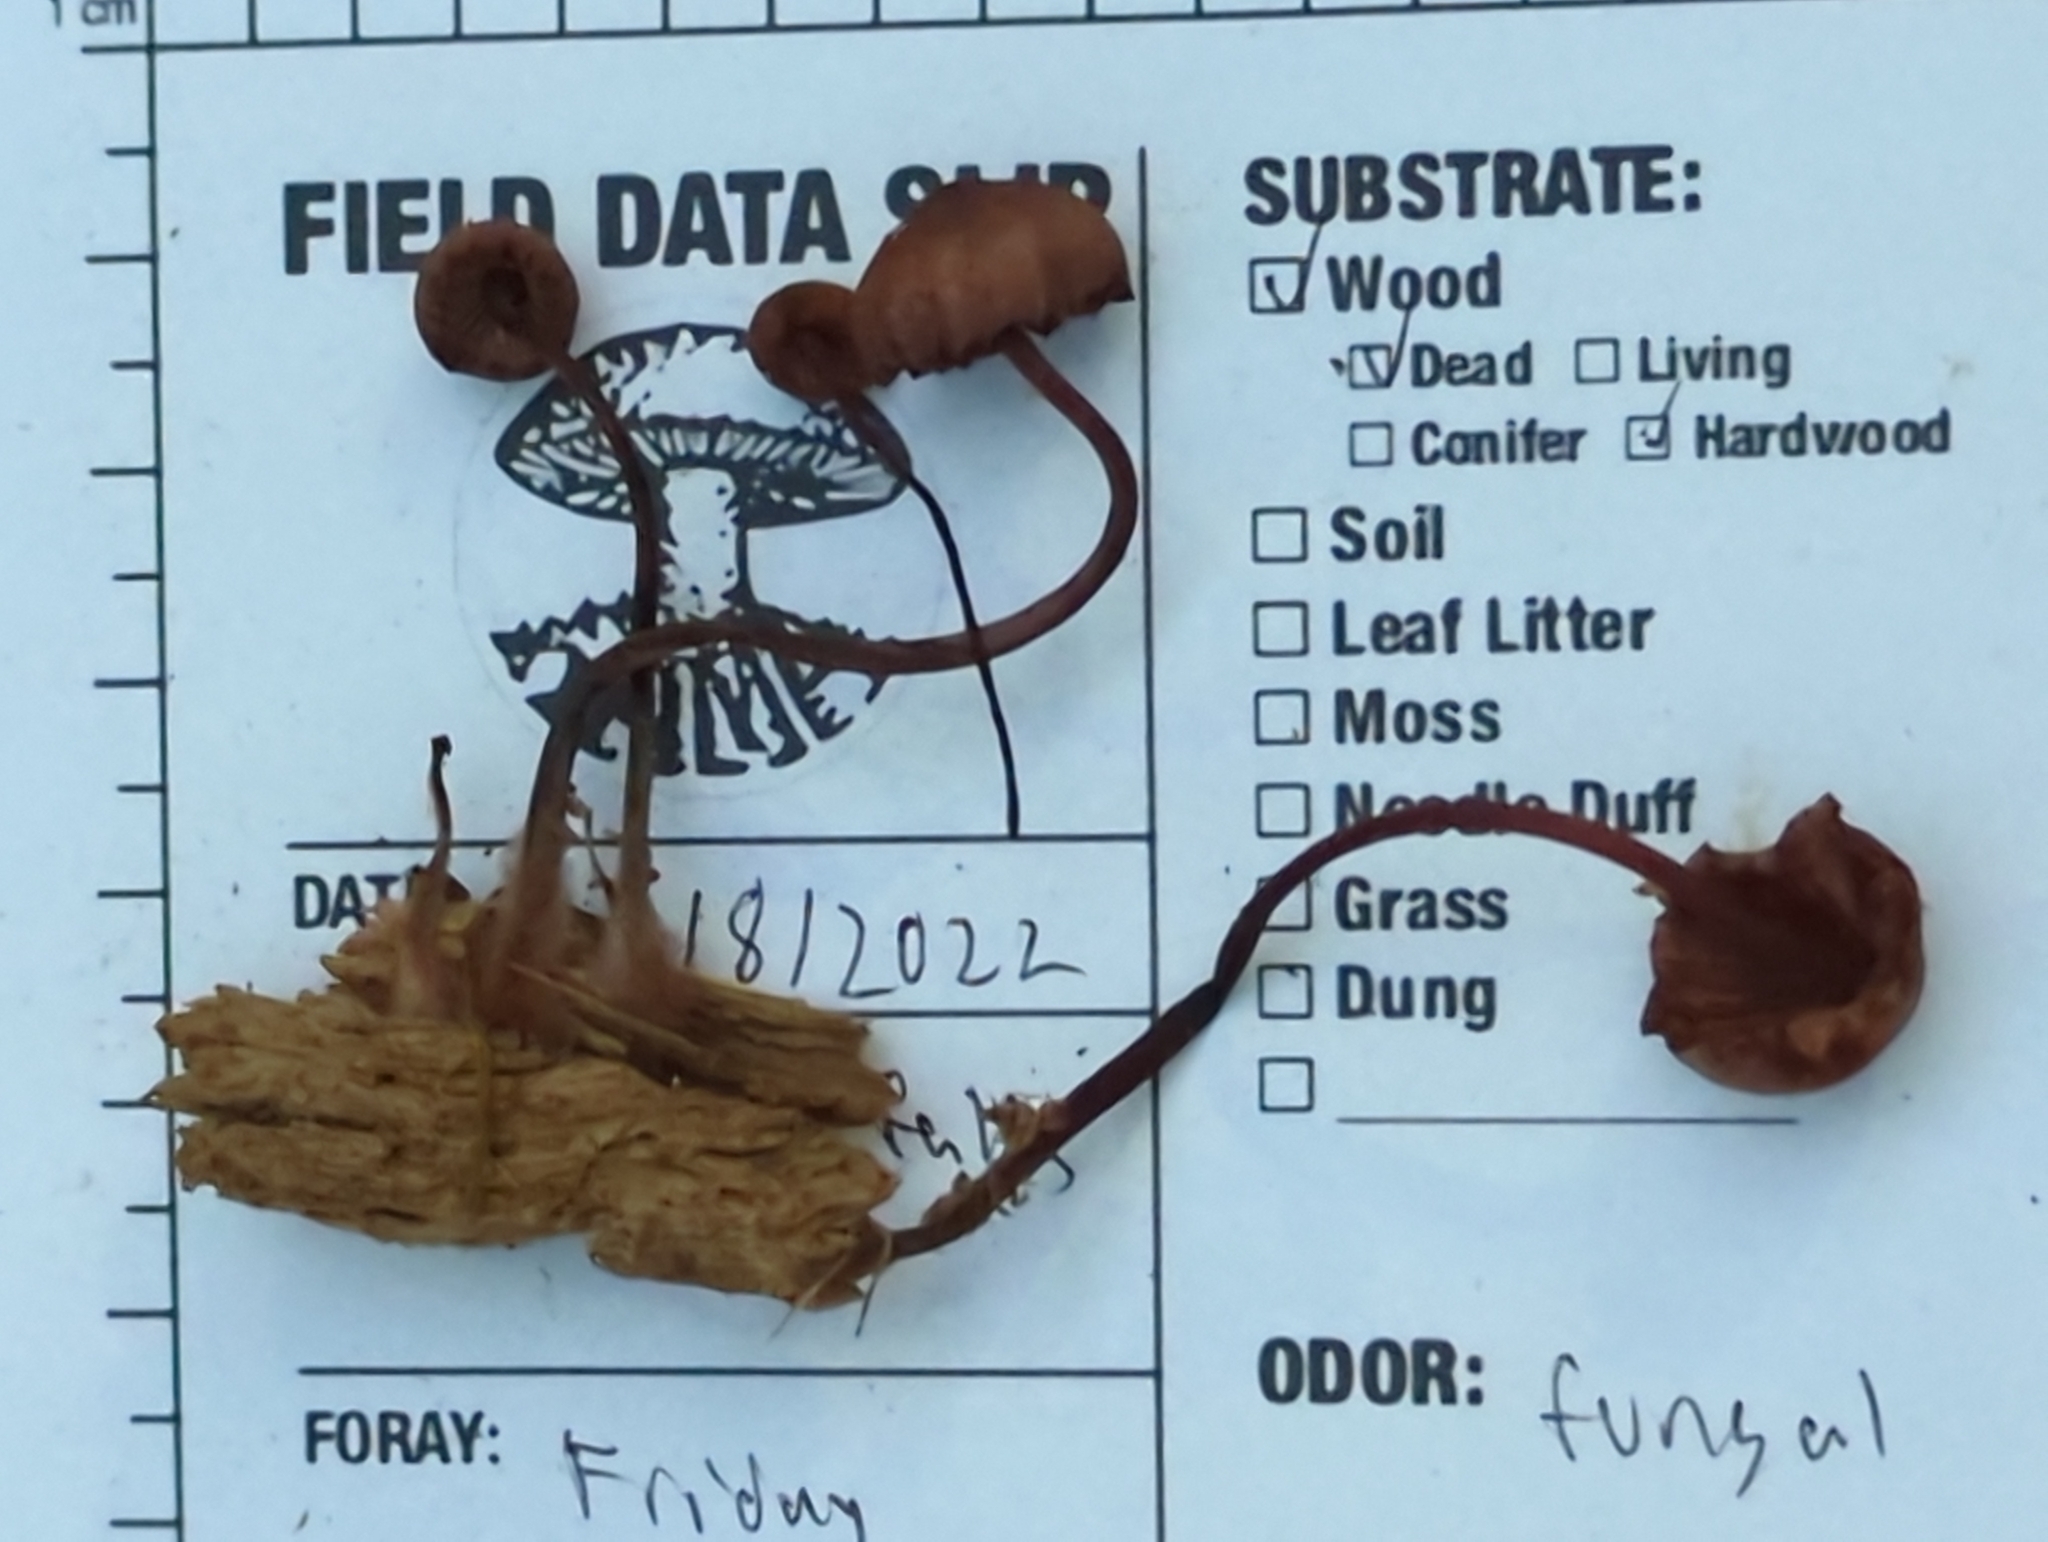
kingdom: Fungi
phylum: Basidiomycota
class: Agaricomycetes
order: Agaricales
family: Mycenaceae
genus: Mycena
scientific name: Mycena haematopus
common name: Burgundydrop bonnet
